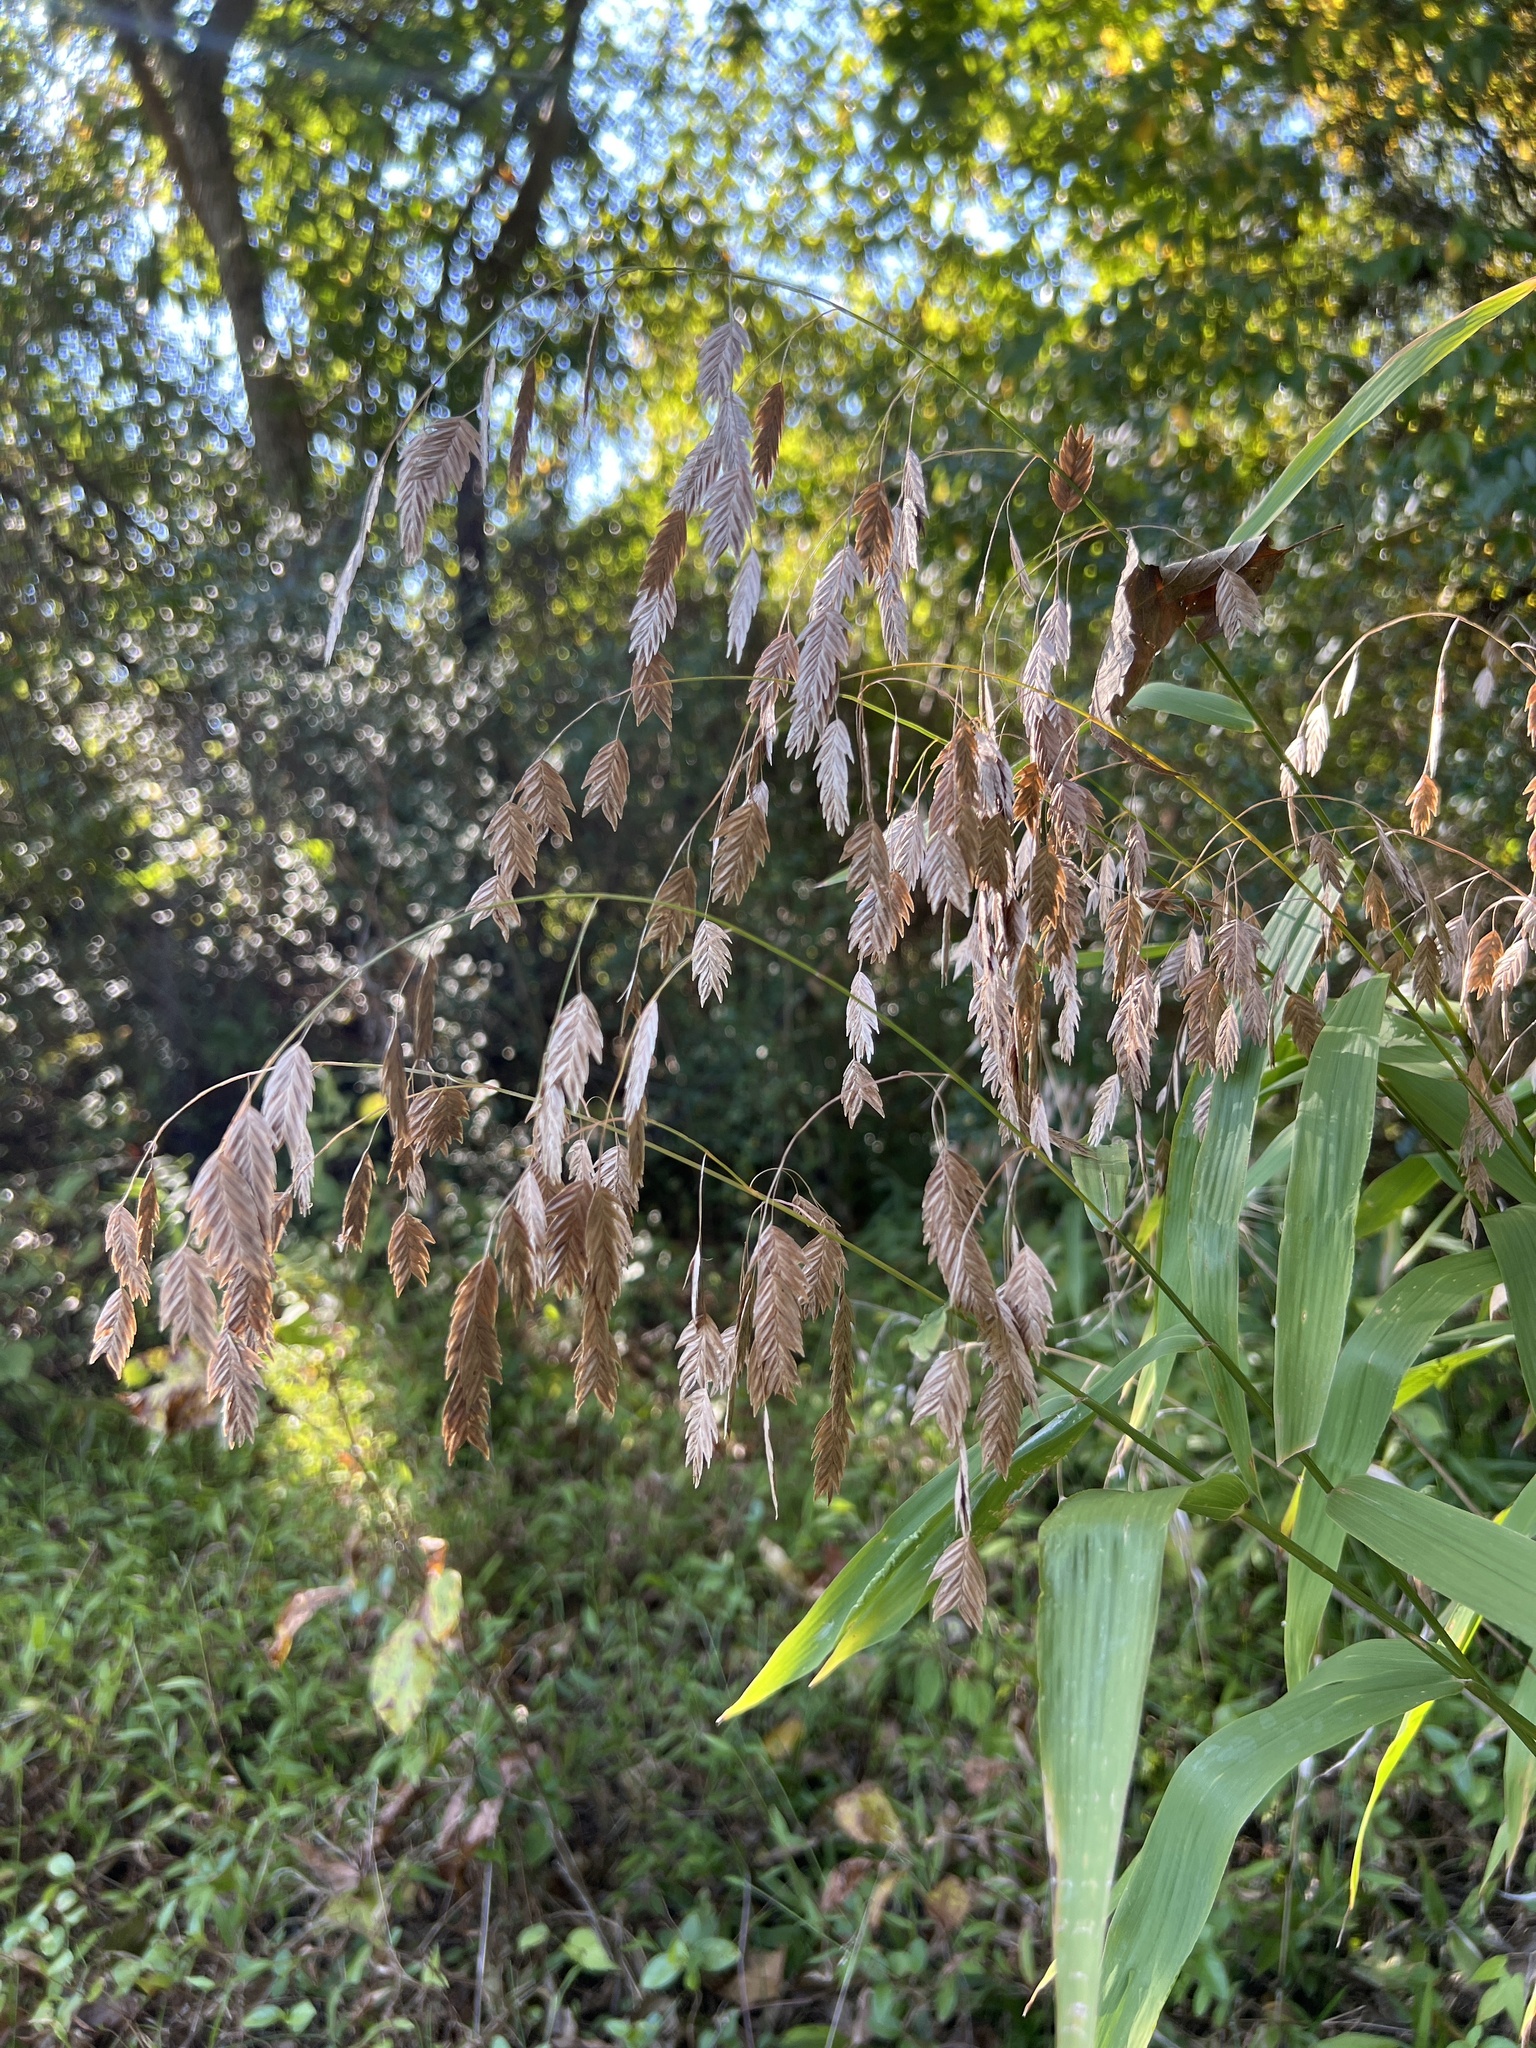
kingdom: Plantae
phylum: Tracheophyta
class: Liliopsida
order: Poales
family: Poaceae
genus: Chasmanthium
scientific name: Chasmanthium latifolium
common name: Broad-leaved chasmanthium
